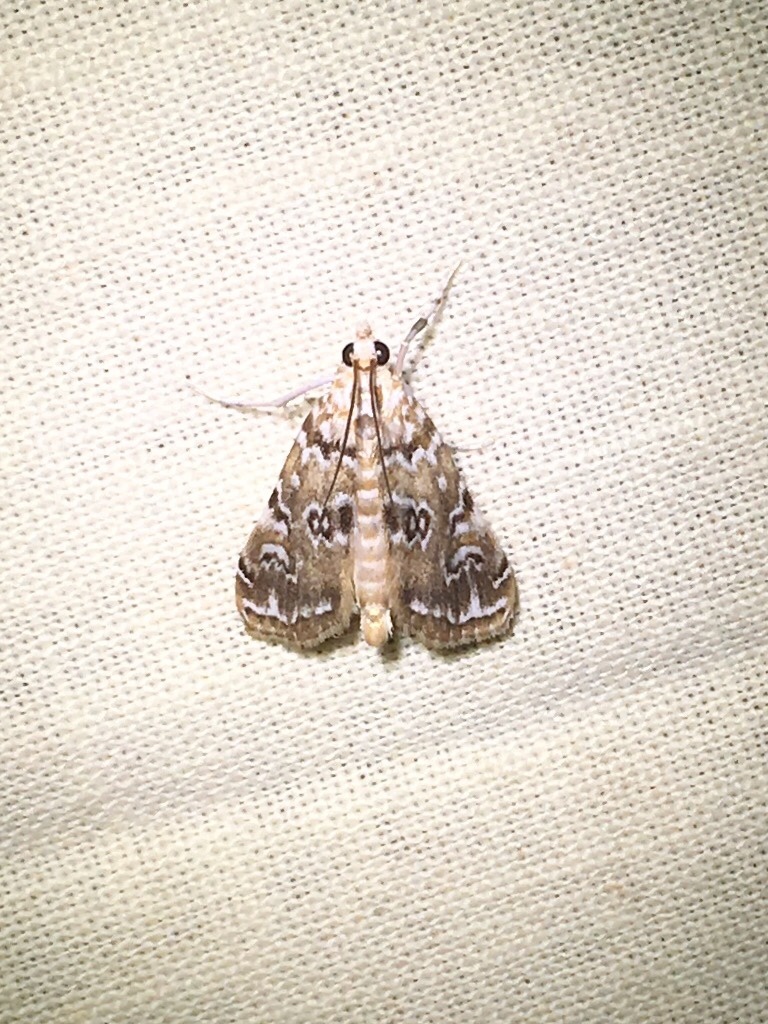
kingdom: Animalia
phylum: Arthropoda
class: Insecta
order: Lepidoptera
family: Crambidae
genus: Elophila
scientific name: Elophila gyralis
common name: Waterlily borer moth
